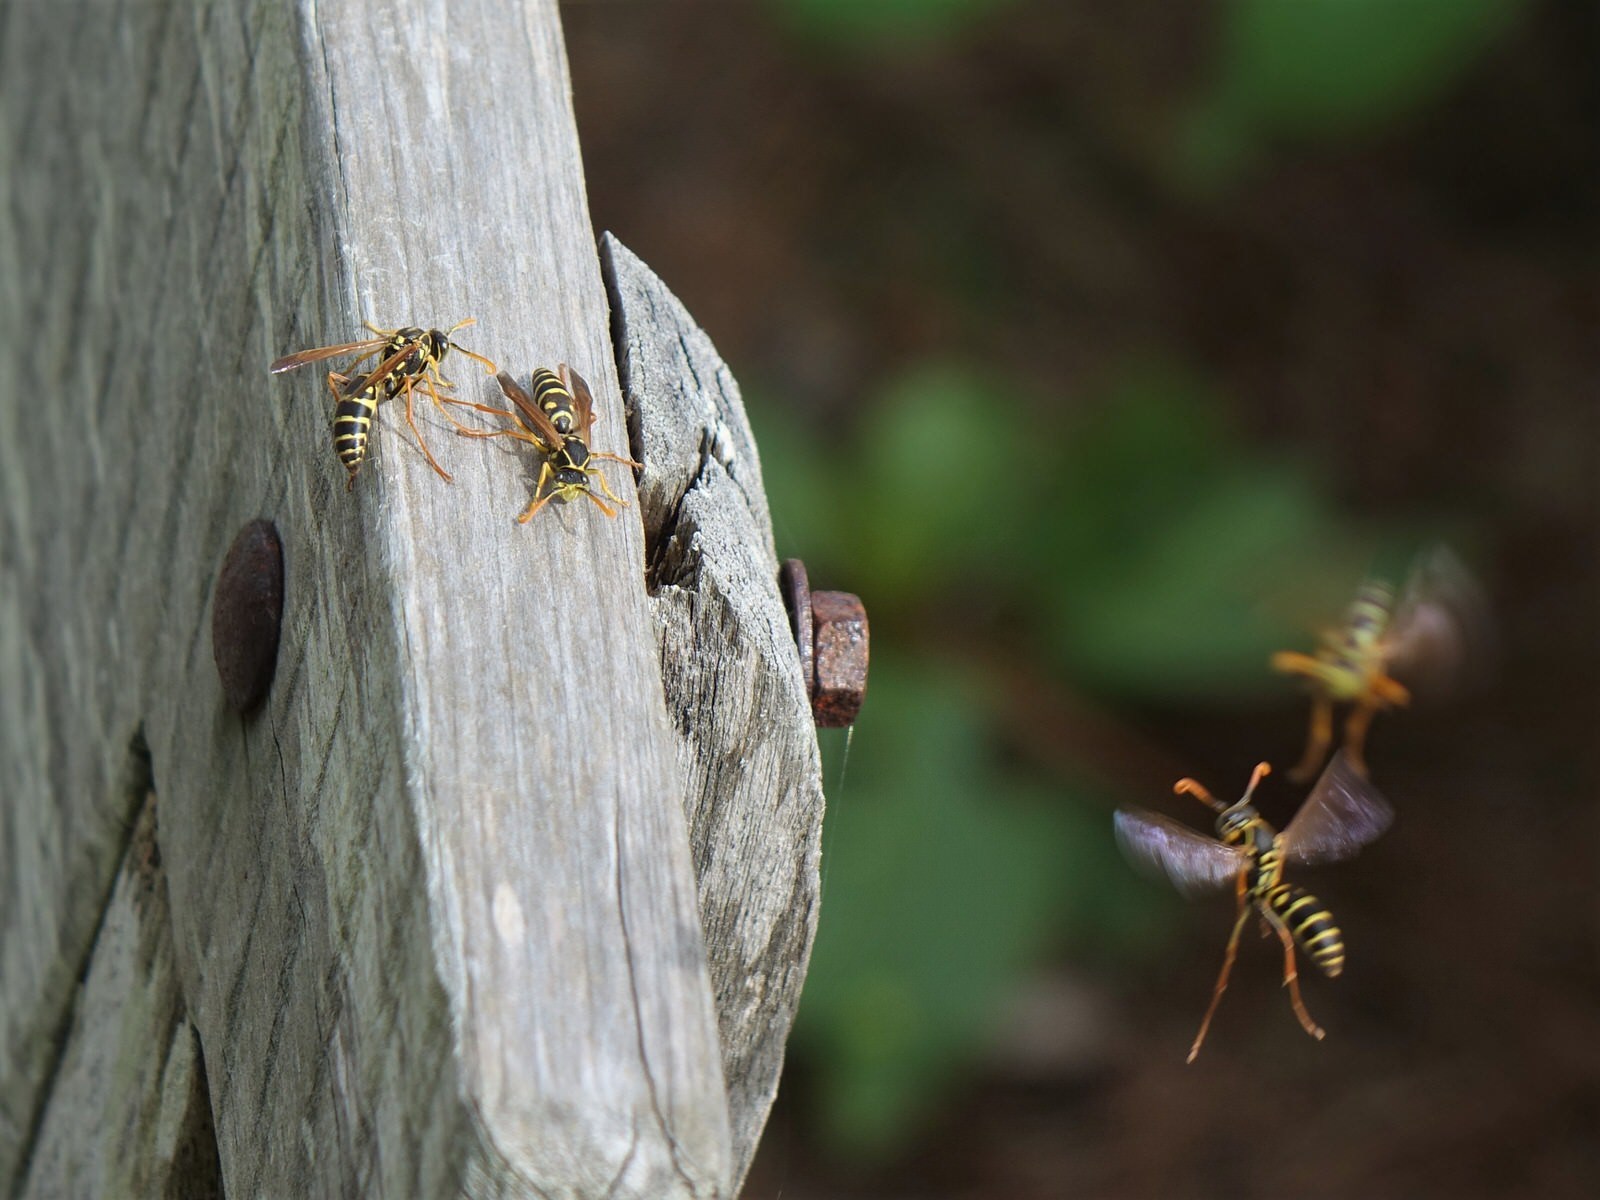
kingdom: Animalia
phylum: Arthropoda
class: Insecta
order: Hymenoptera
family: Eumenidae
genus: Polistes
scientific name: Polistes chinensis
